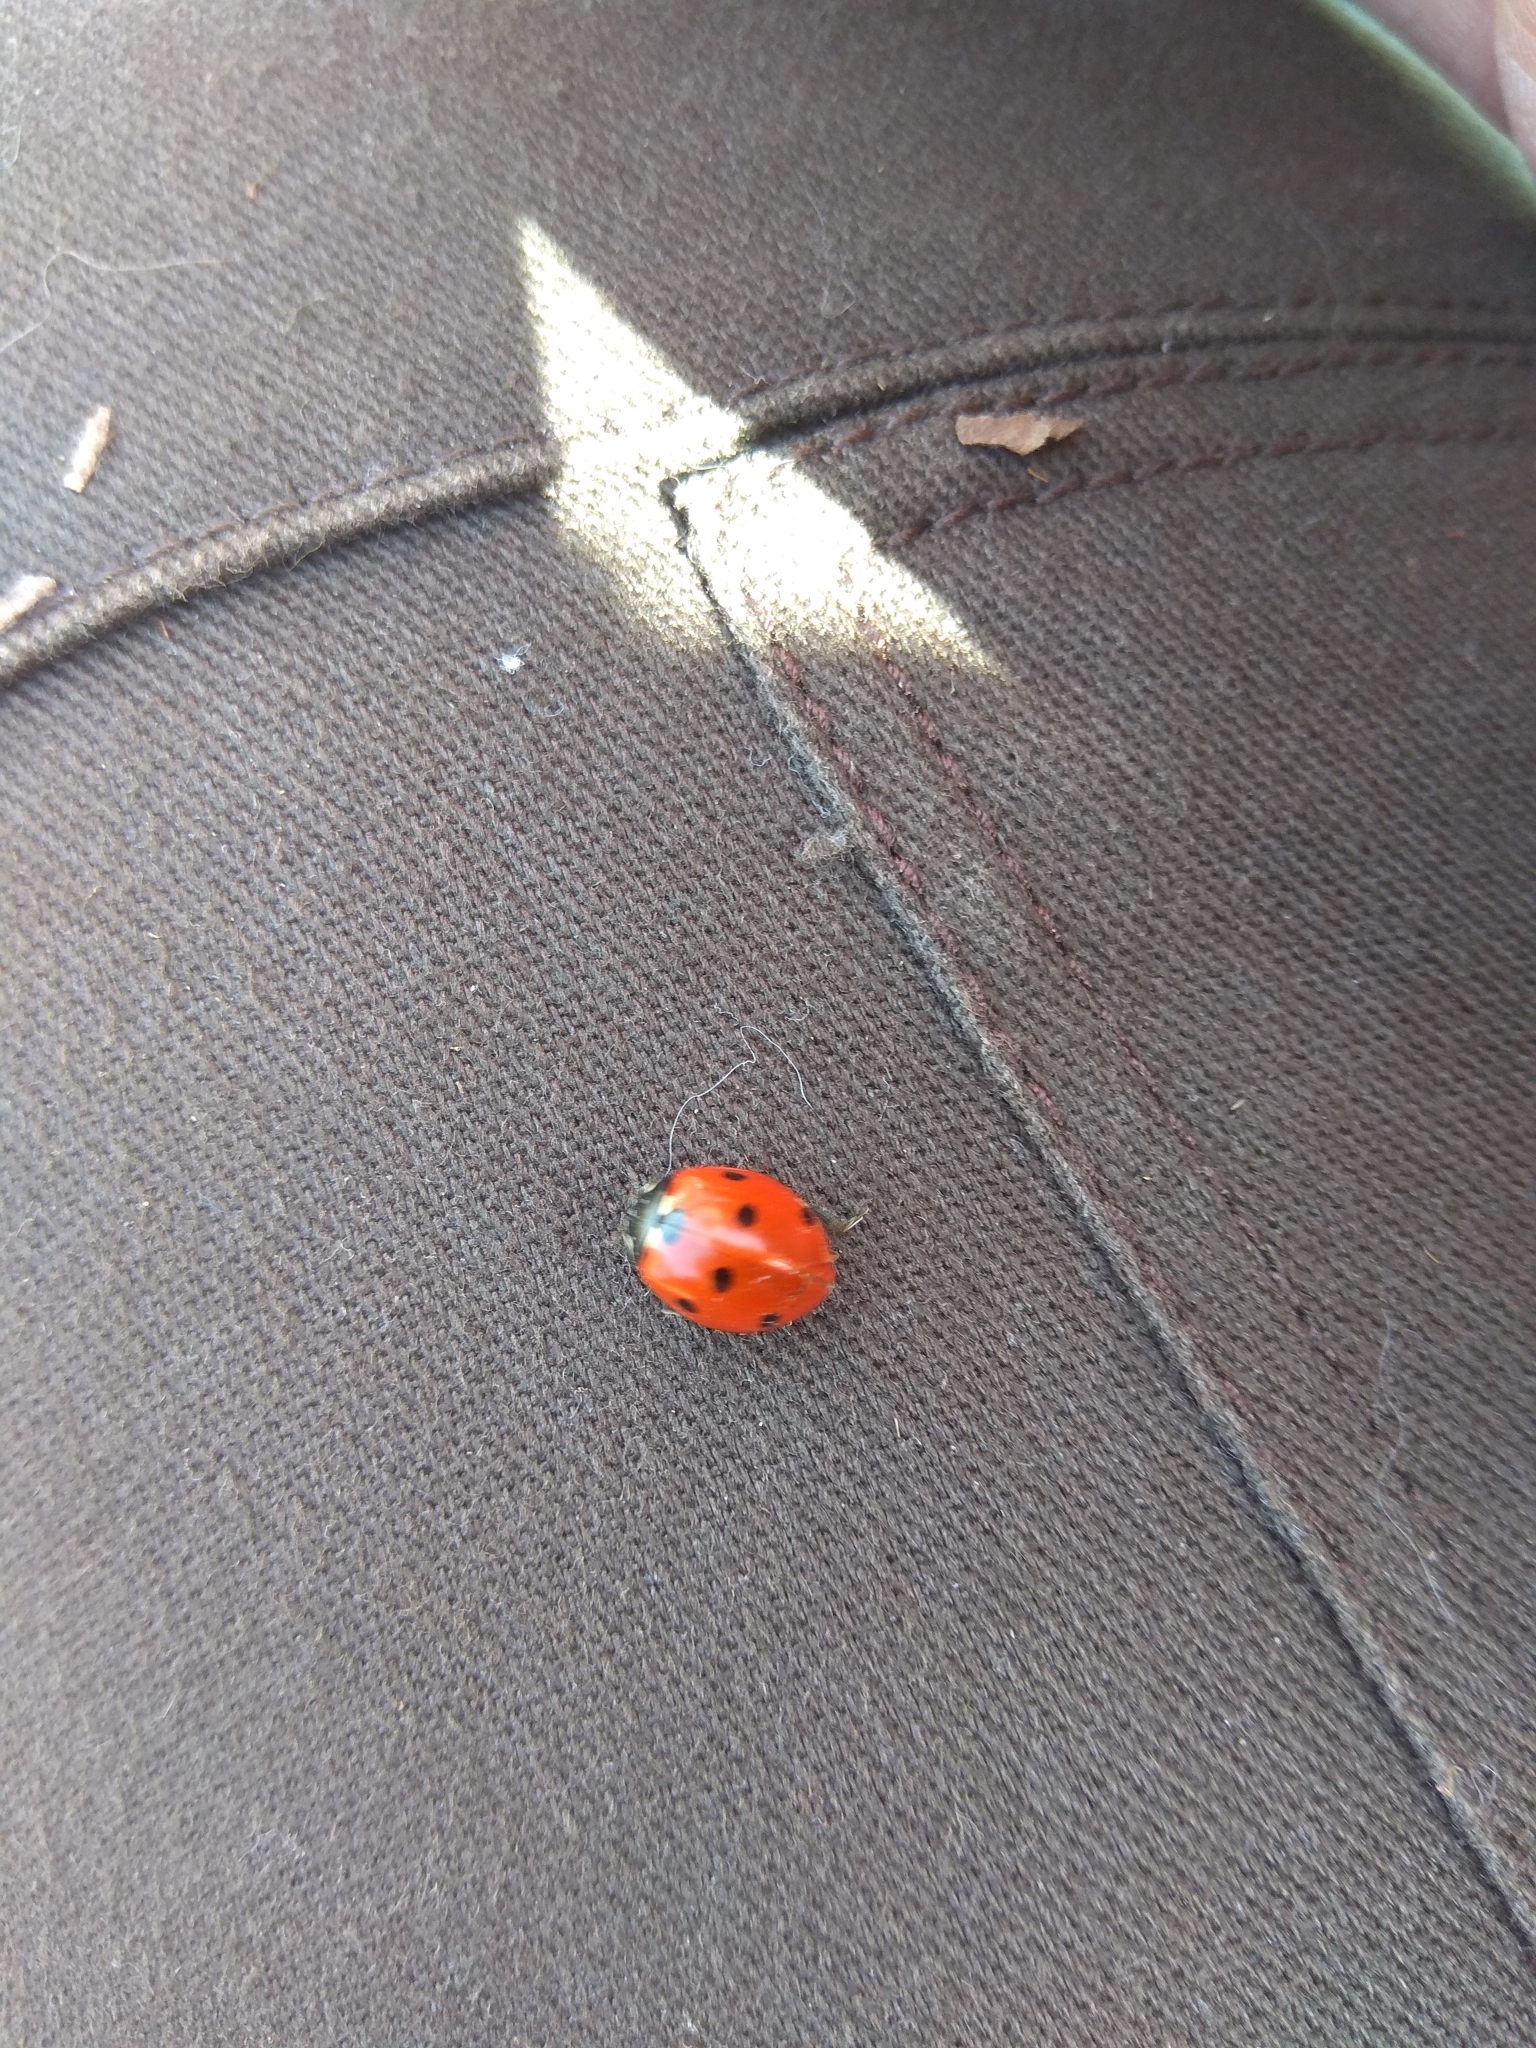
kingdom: Animalia
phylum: Arthropoda
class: Insecta
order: Coleoptera
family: Coccinellidae
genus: Coccinella
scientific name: Coccinella septempunctata
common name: Sevenspotted lady beetle
